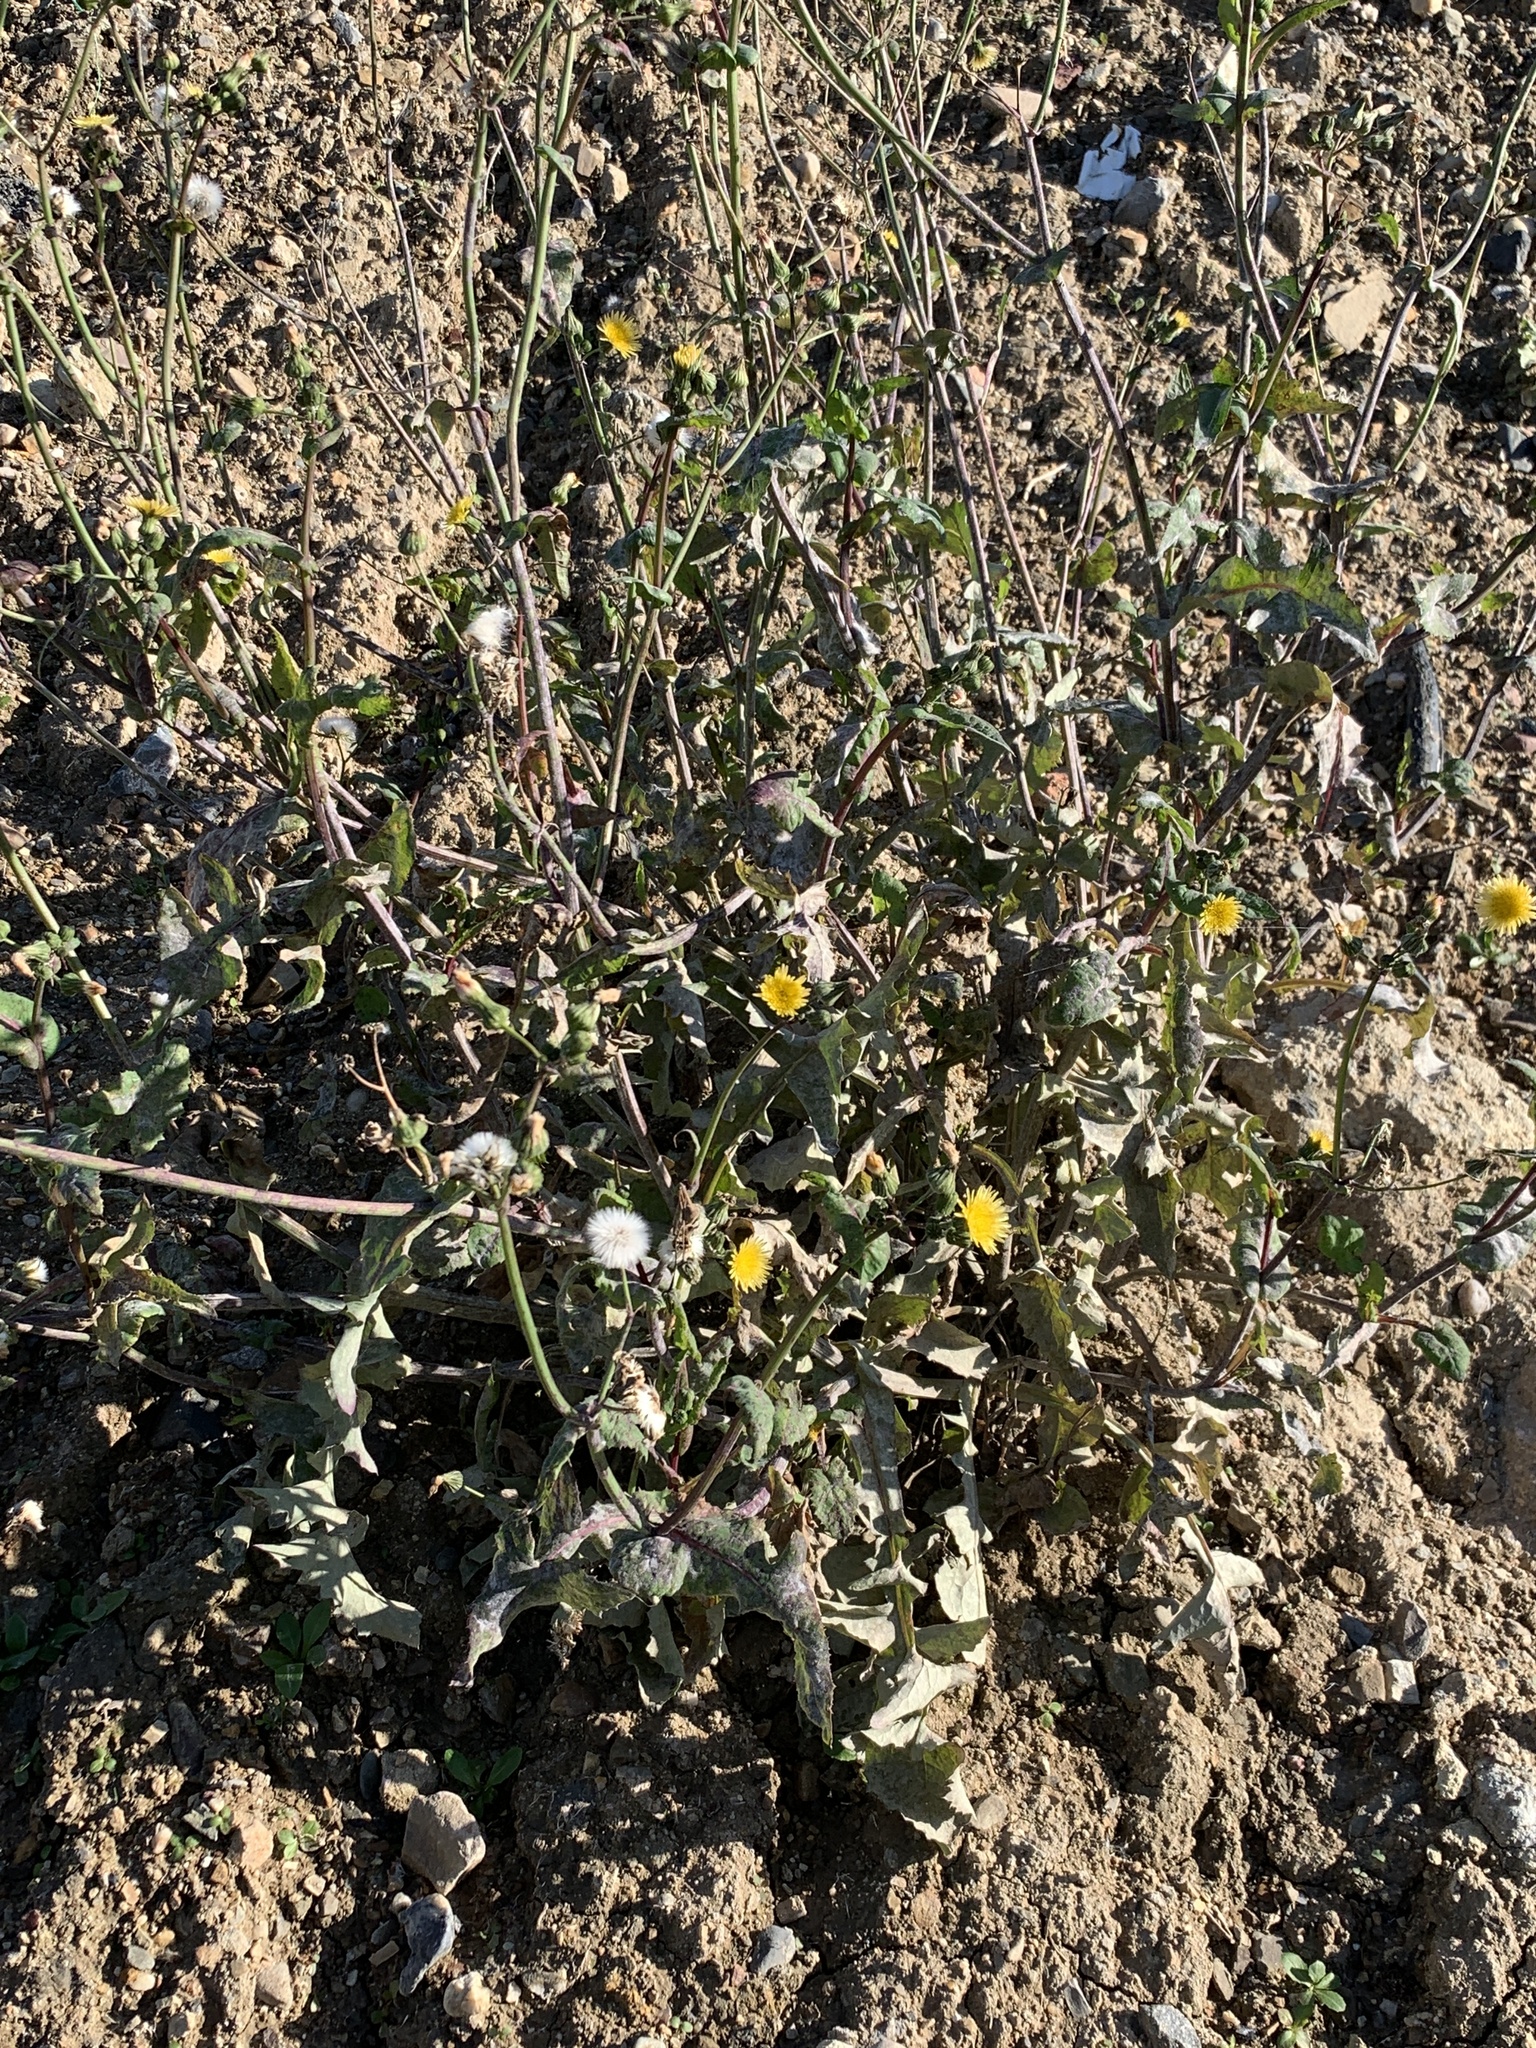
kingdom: Plantae
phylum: Tracheophyta
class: Magnoliopsida
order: Asterales
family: Asteraceae
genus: Sonchus
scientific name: Sonchus oleraceus
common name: Common sowthistle
